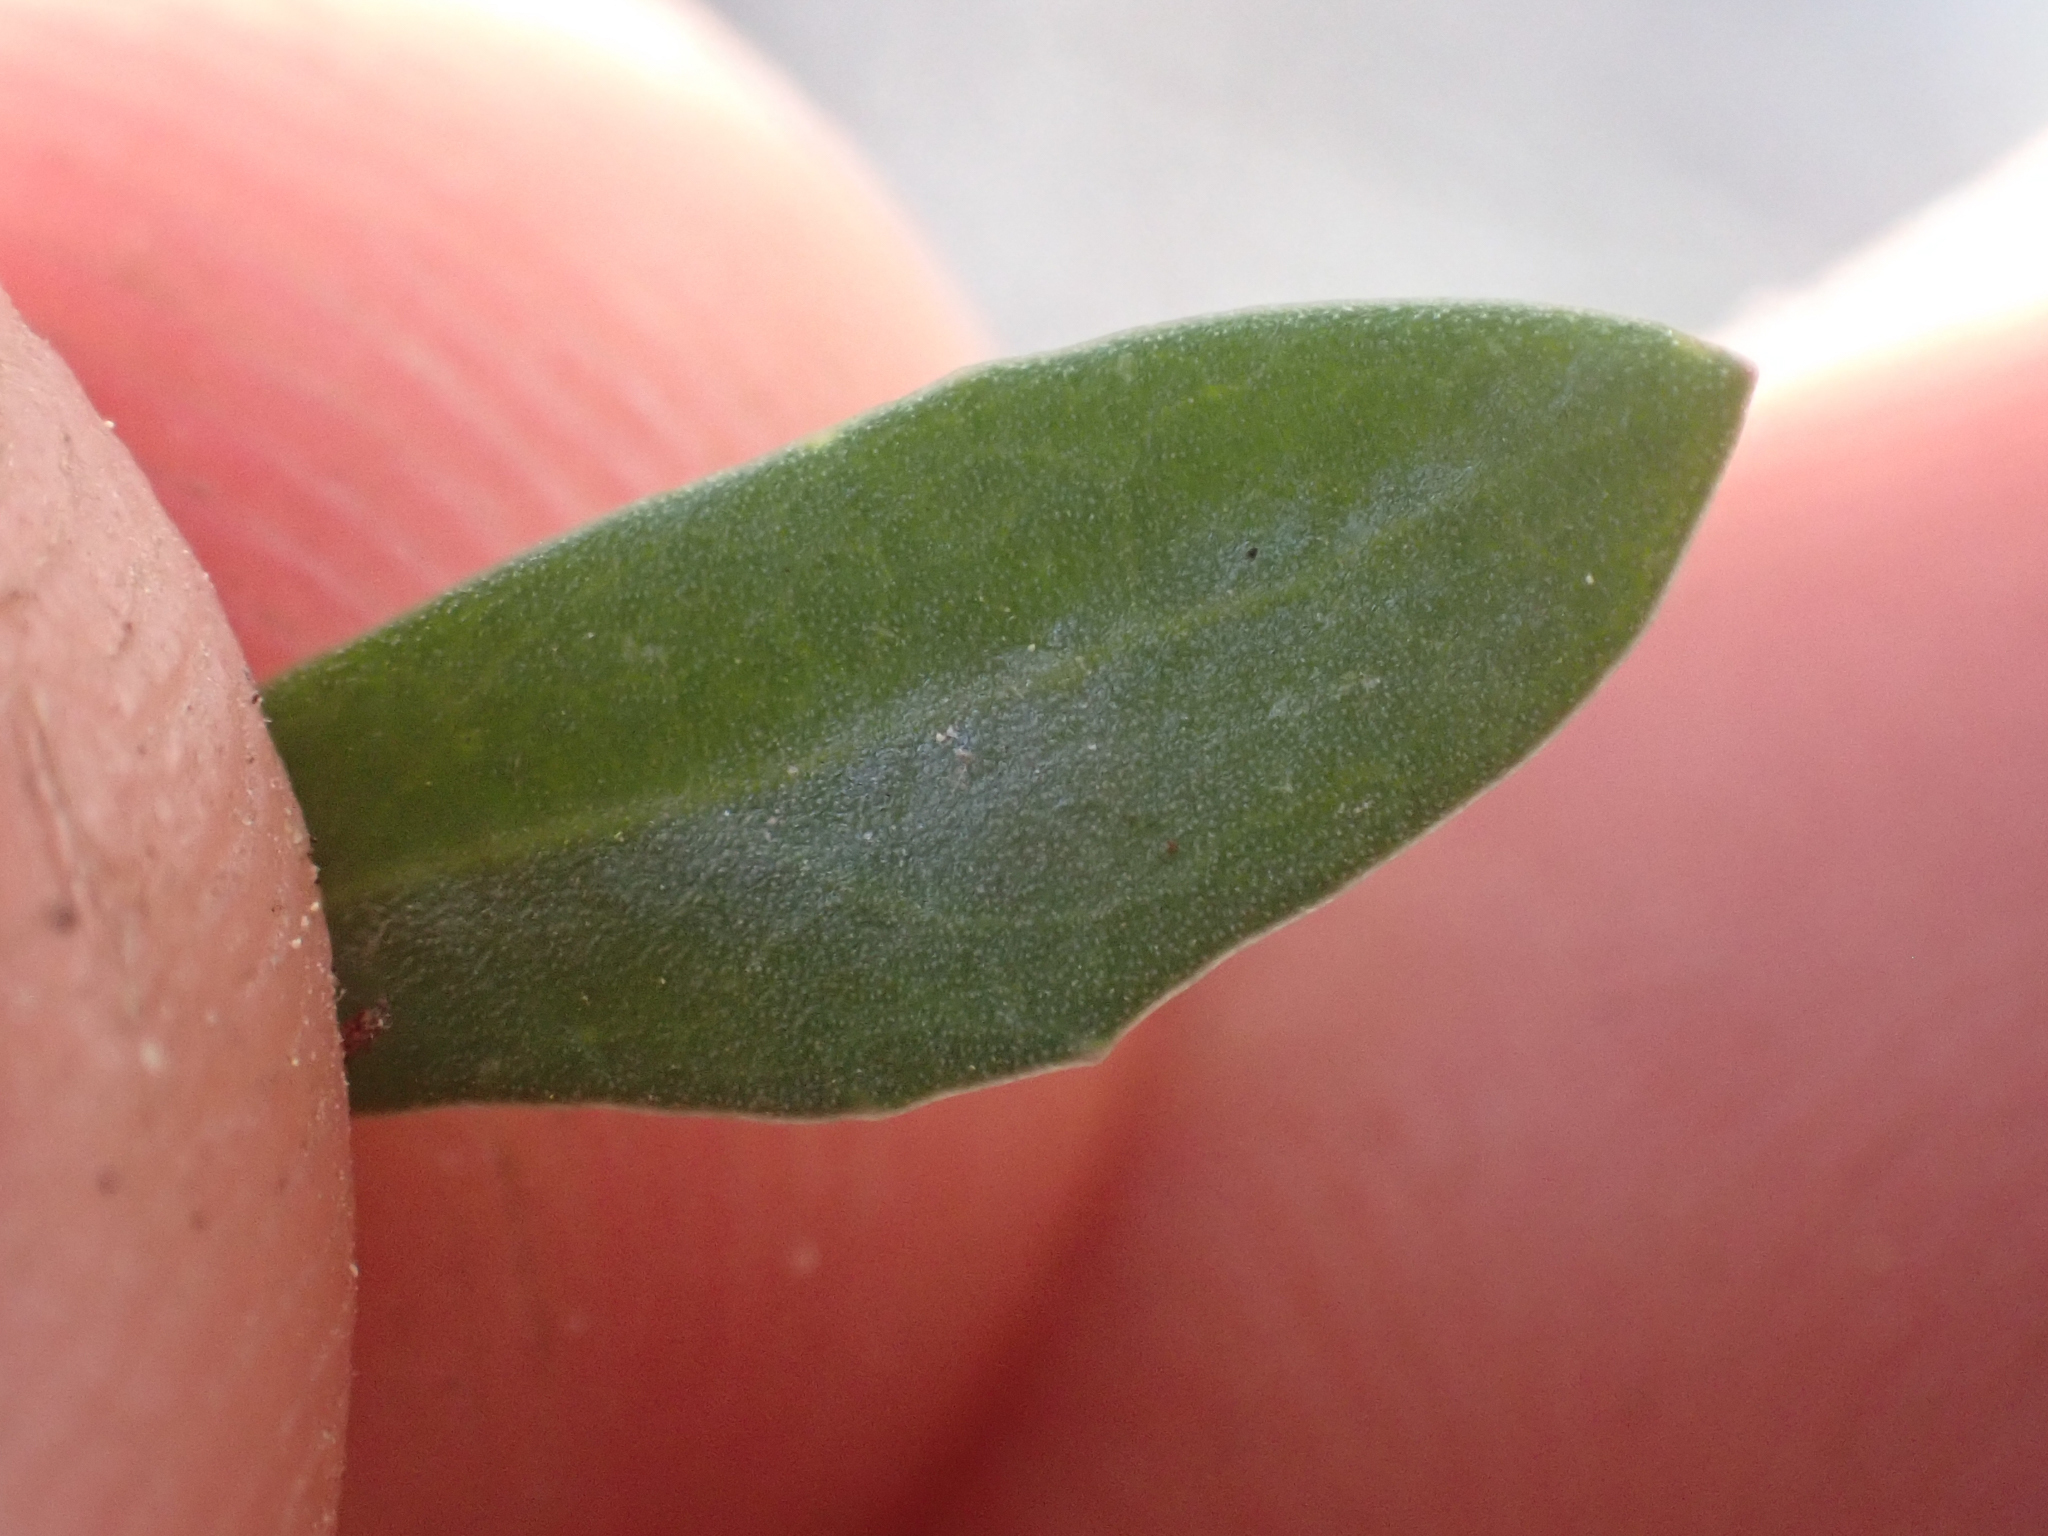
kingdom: Plantae
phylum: Tracheophyta
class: Magnoliopsida
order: Brassicales
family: Brassicaceae
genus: Boechera
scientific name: Boechera davidsonii
